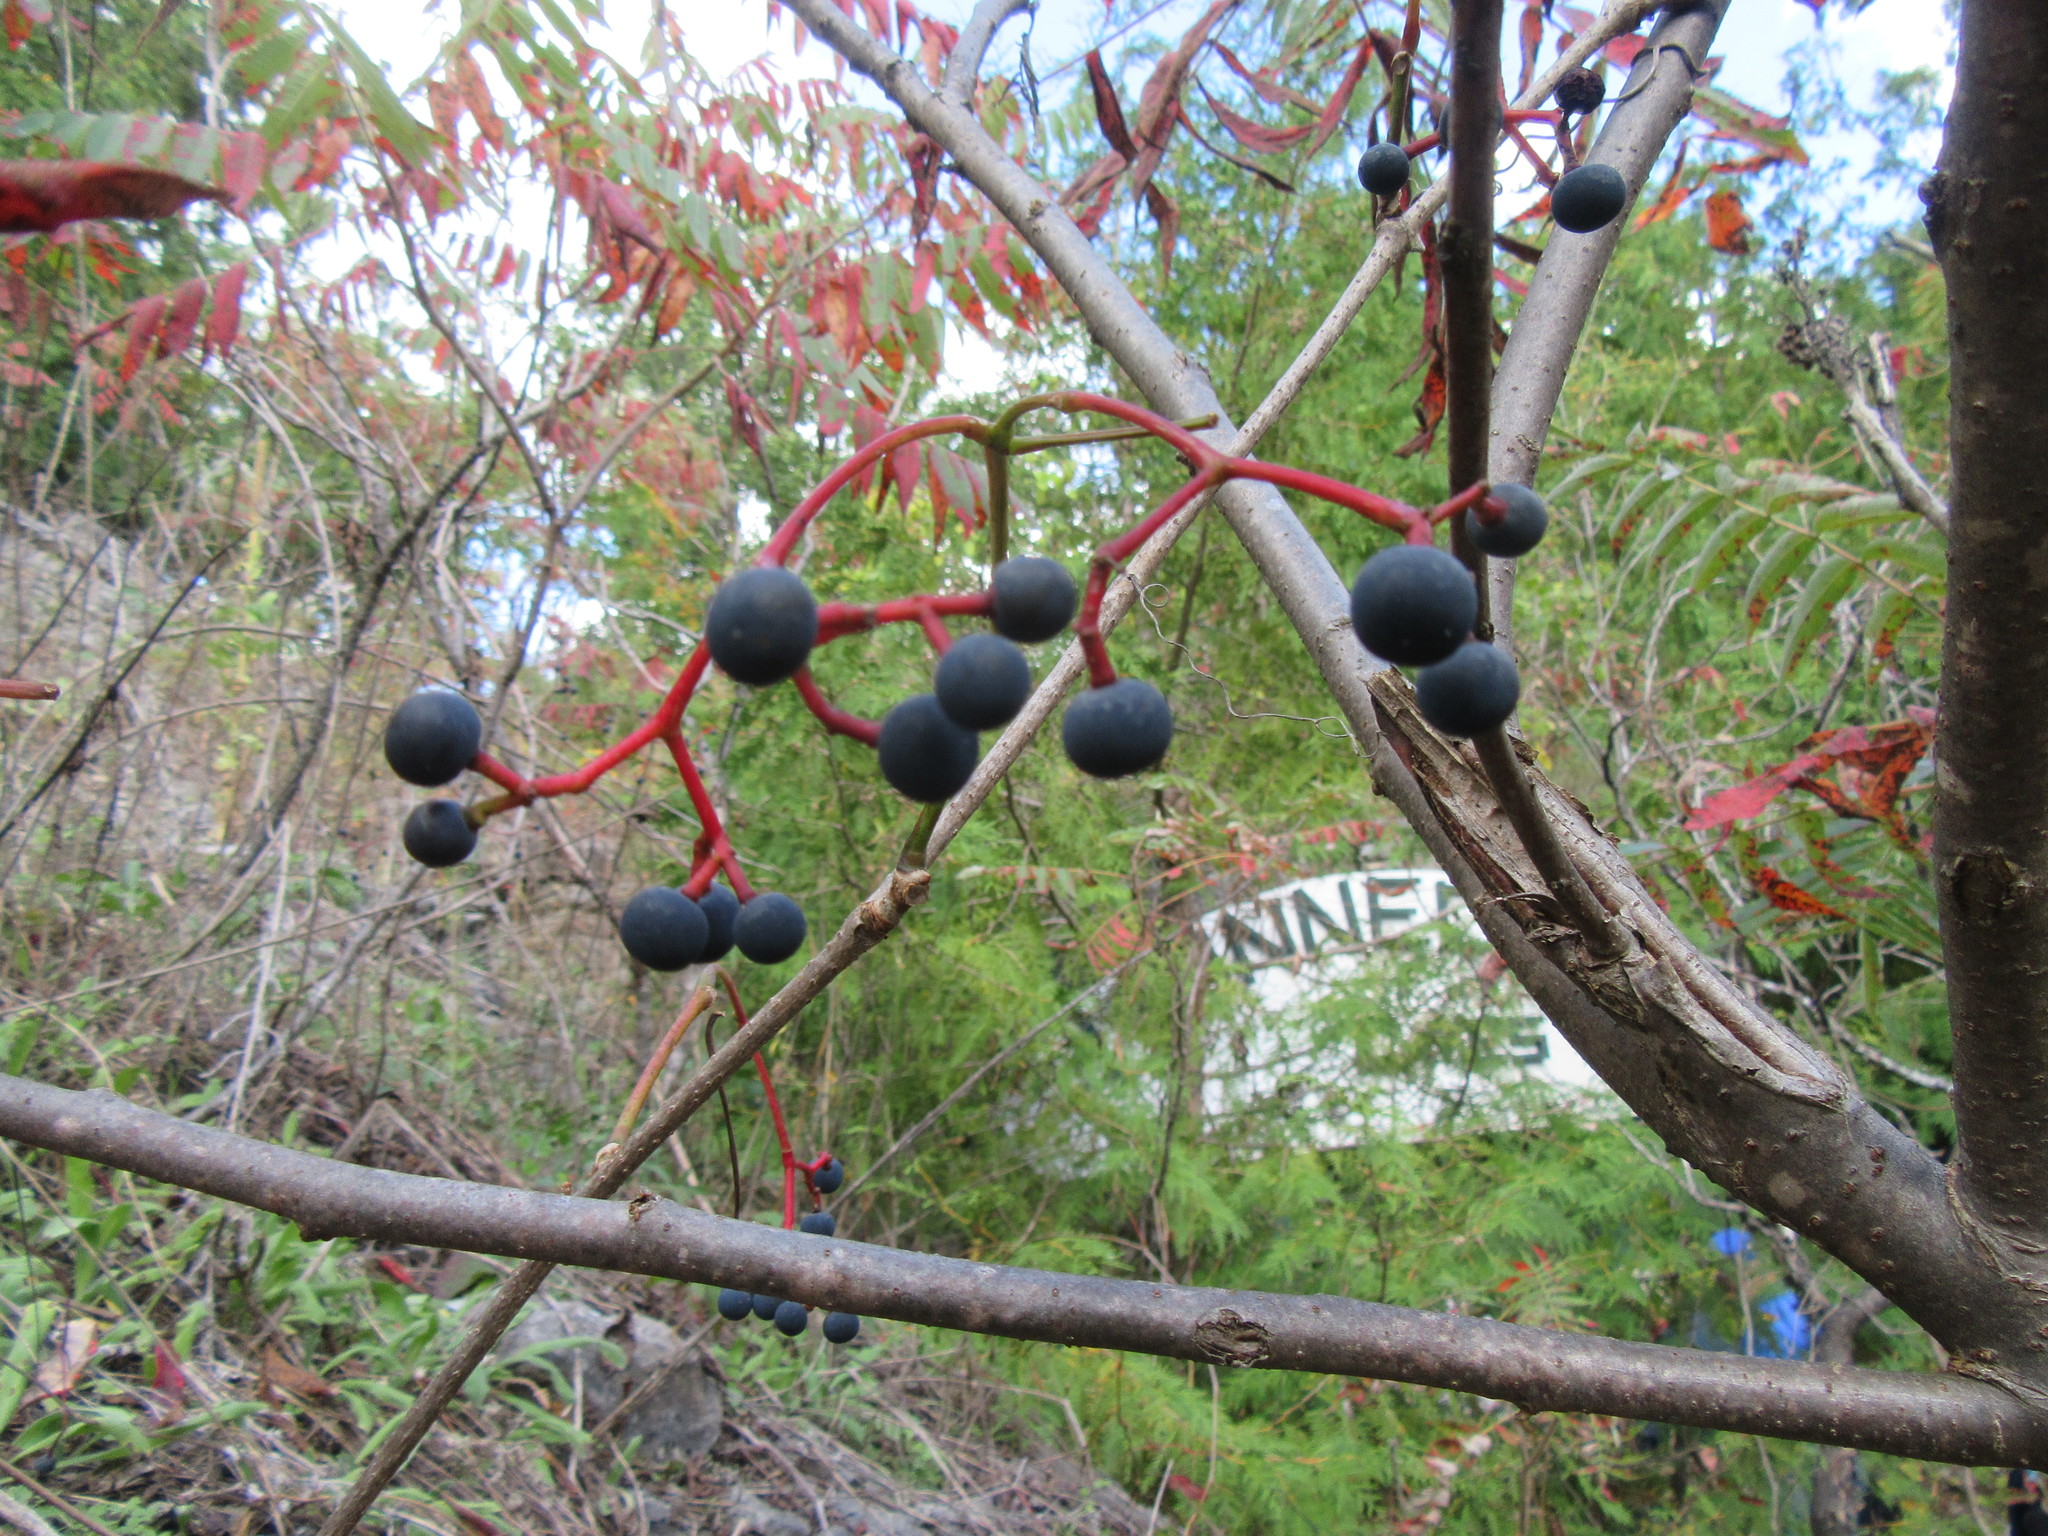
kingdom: Plantae
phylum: Tracheophyta
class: Magnoliopsida
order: Vitales
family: Vitaceae
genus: Parthenocissus
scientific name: Parthenocissus inserta
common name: False virginia-creeper
